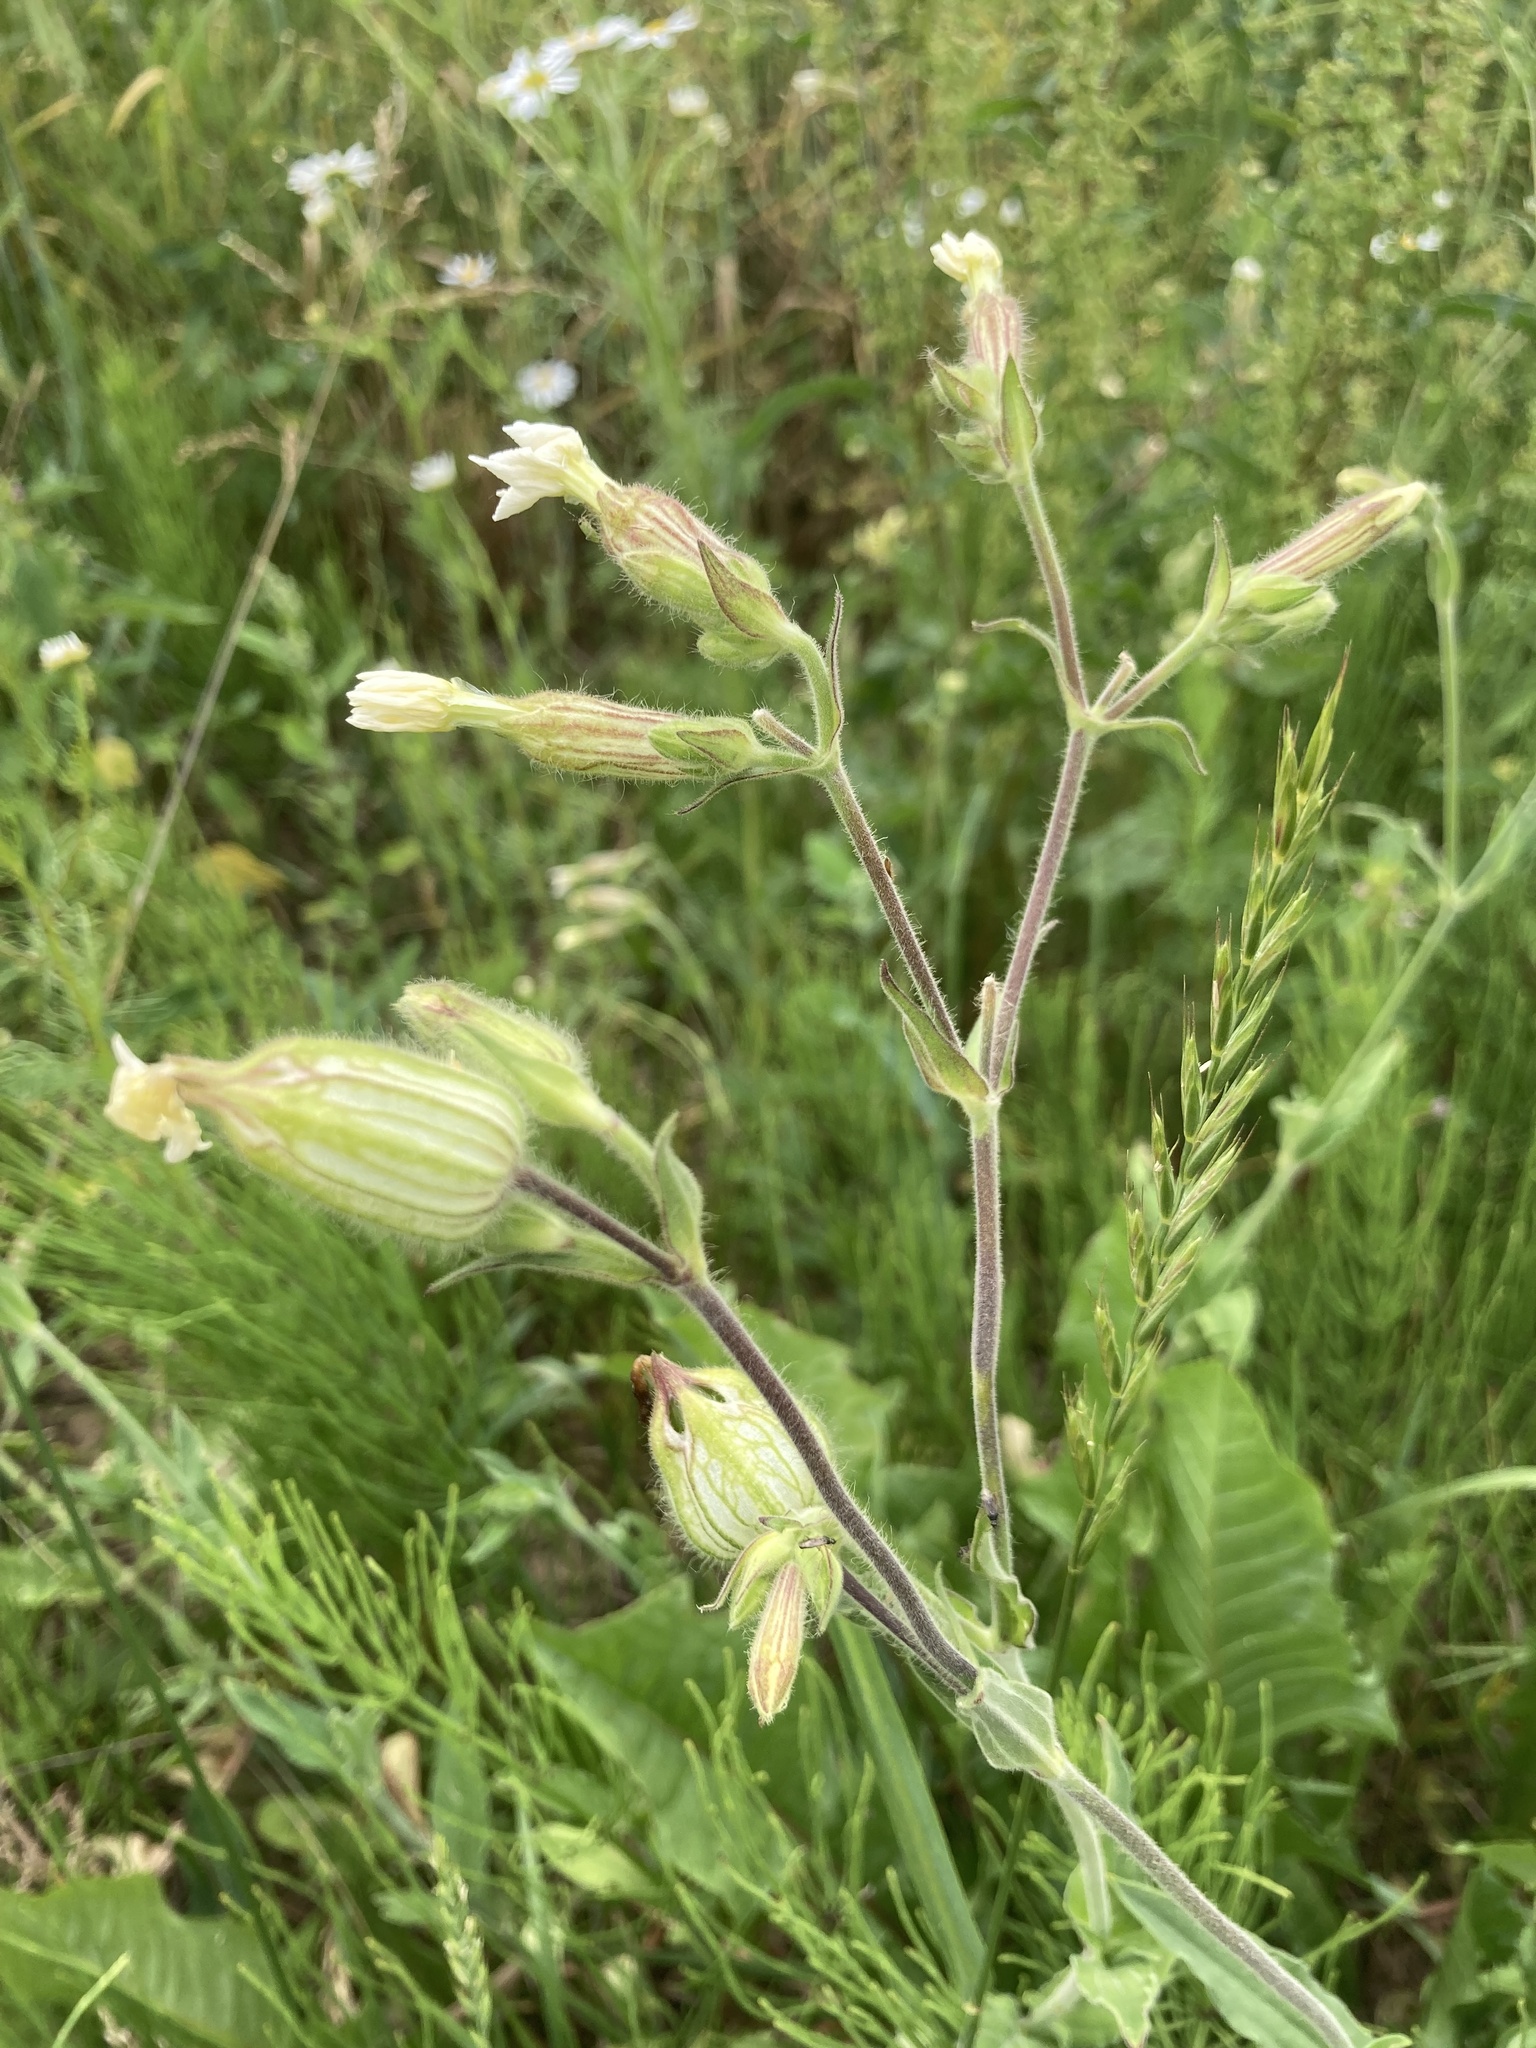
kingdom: Plantae
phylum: Tracheophyta
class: Magnoliopsida
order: Caryophyllales
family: Caryophyllaceae
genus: Silene
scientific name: Silene latifolia
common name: White campion
